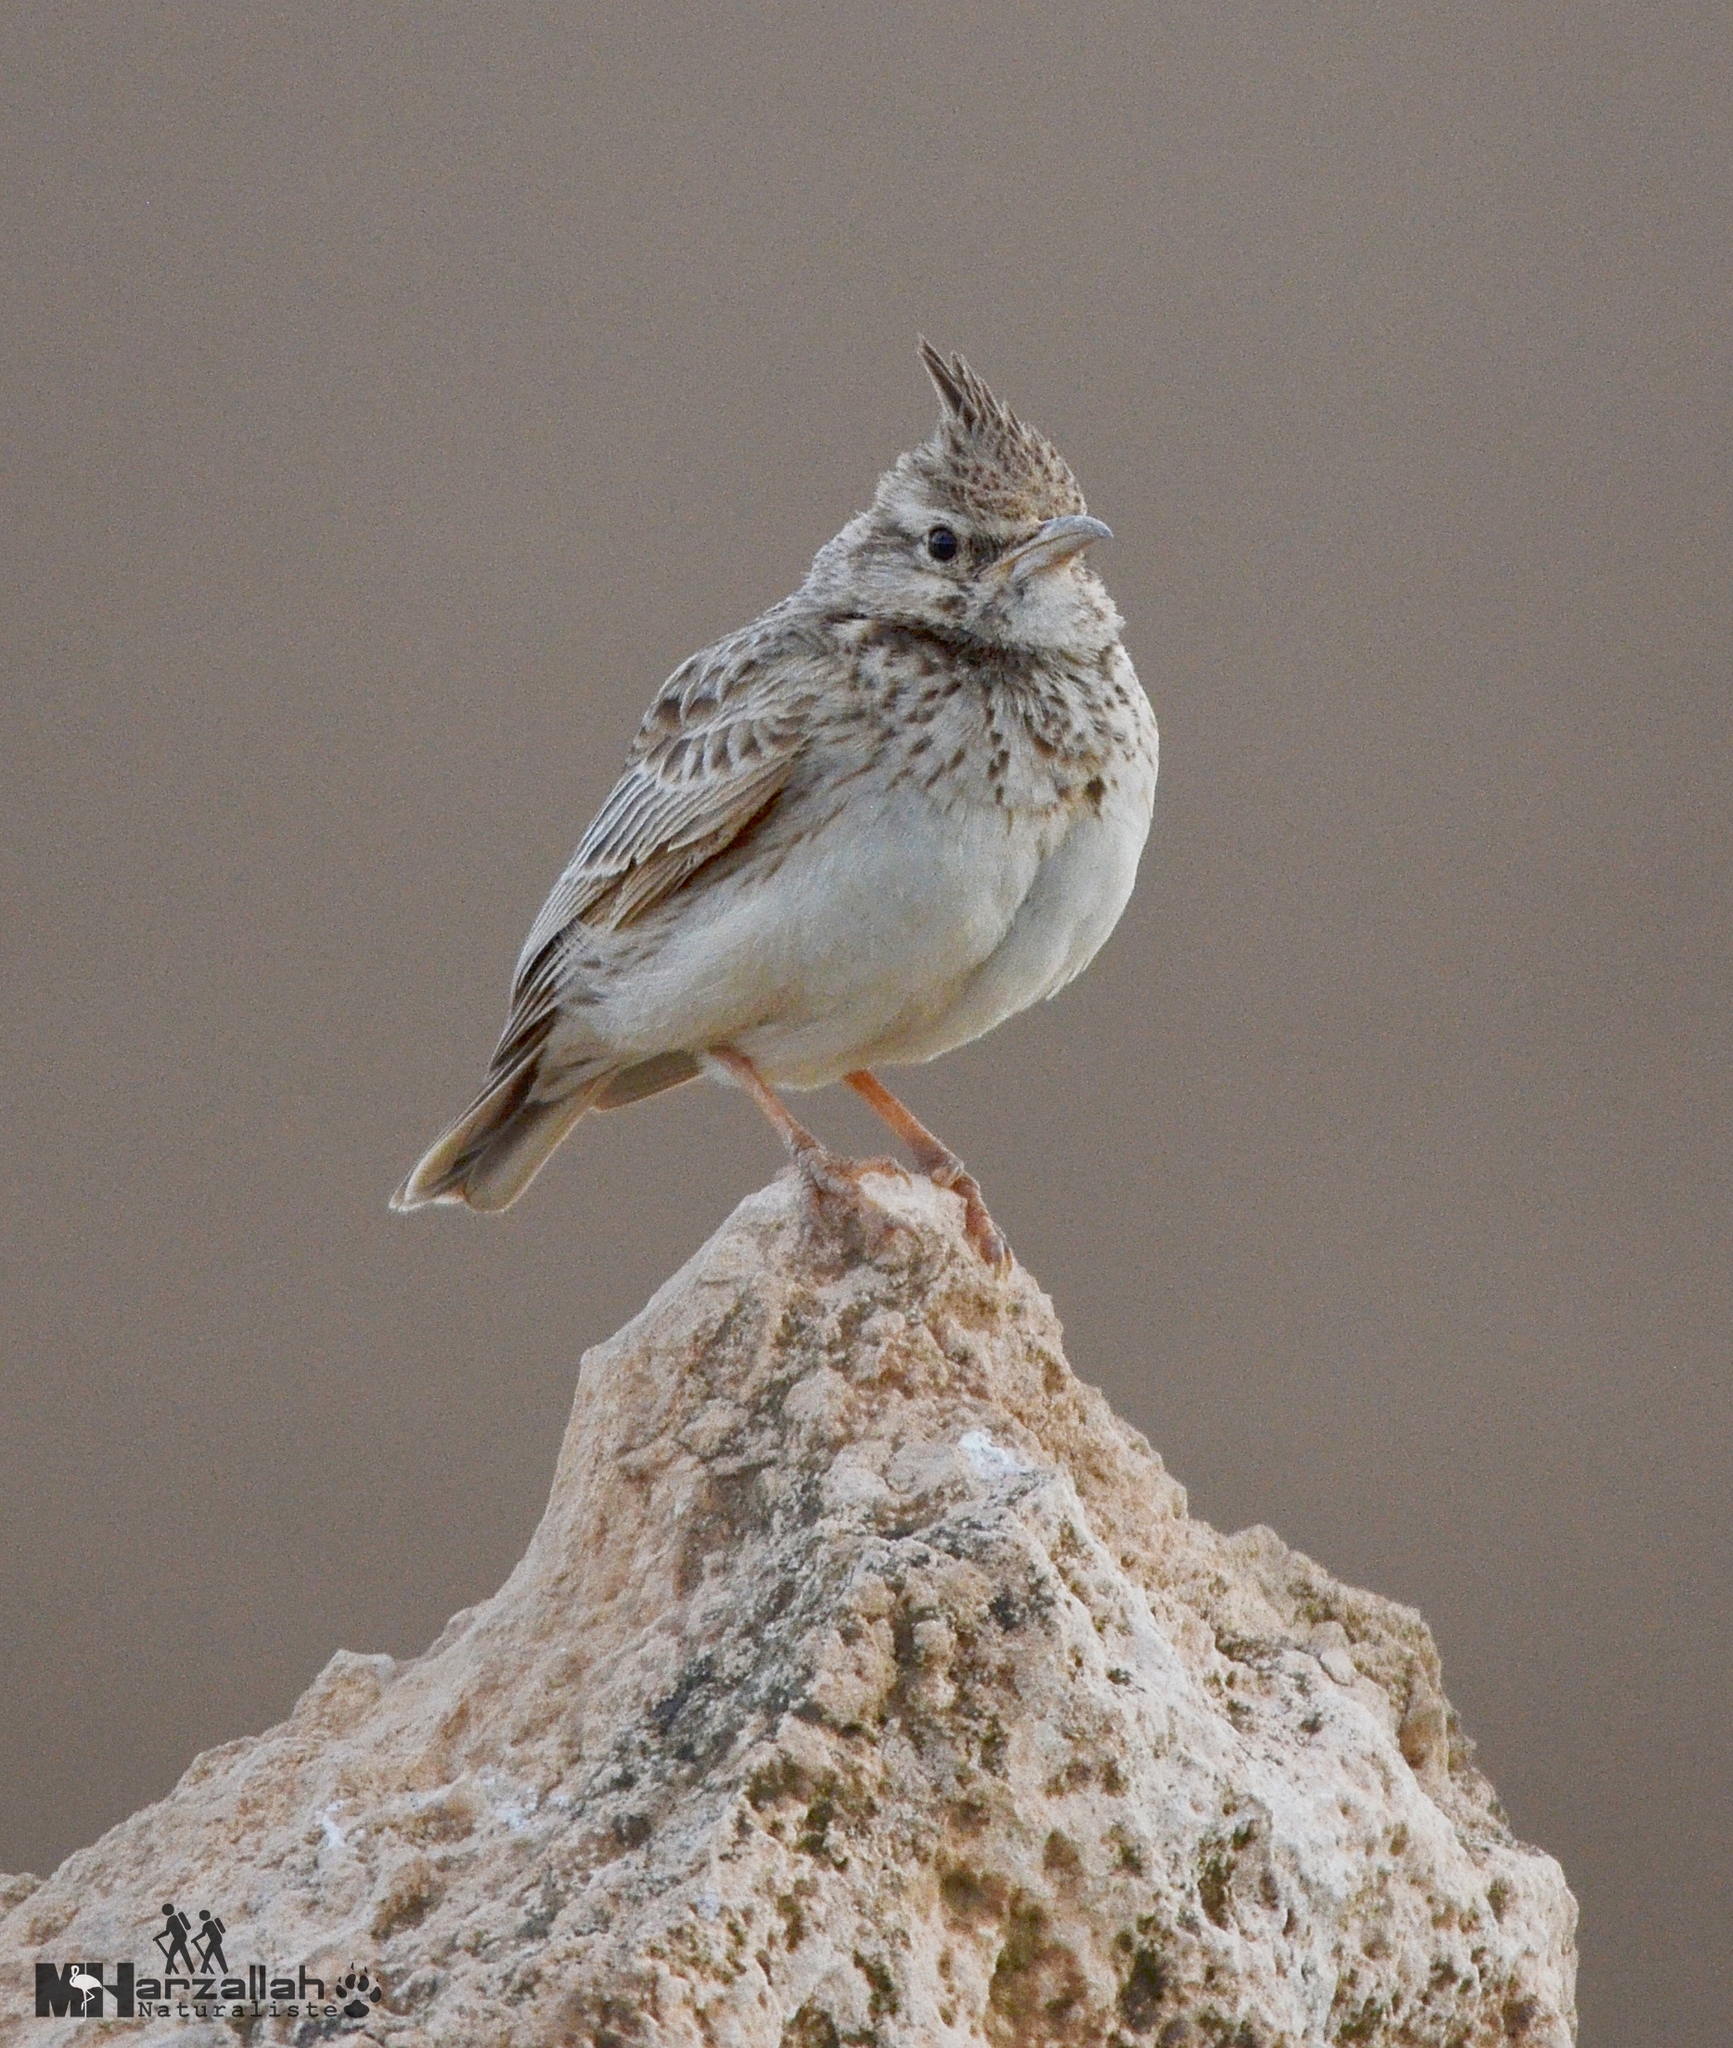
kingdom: Animalia
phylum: Chordata
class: Aves
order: Passeriformes
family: Alaudidae
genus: Galerida
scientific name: Galerida cristata
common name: Crested lark
